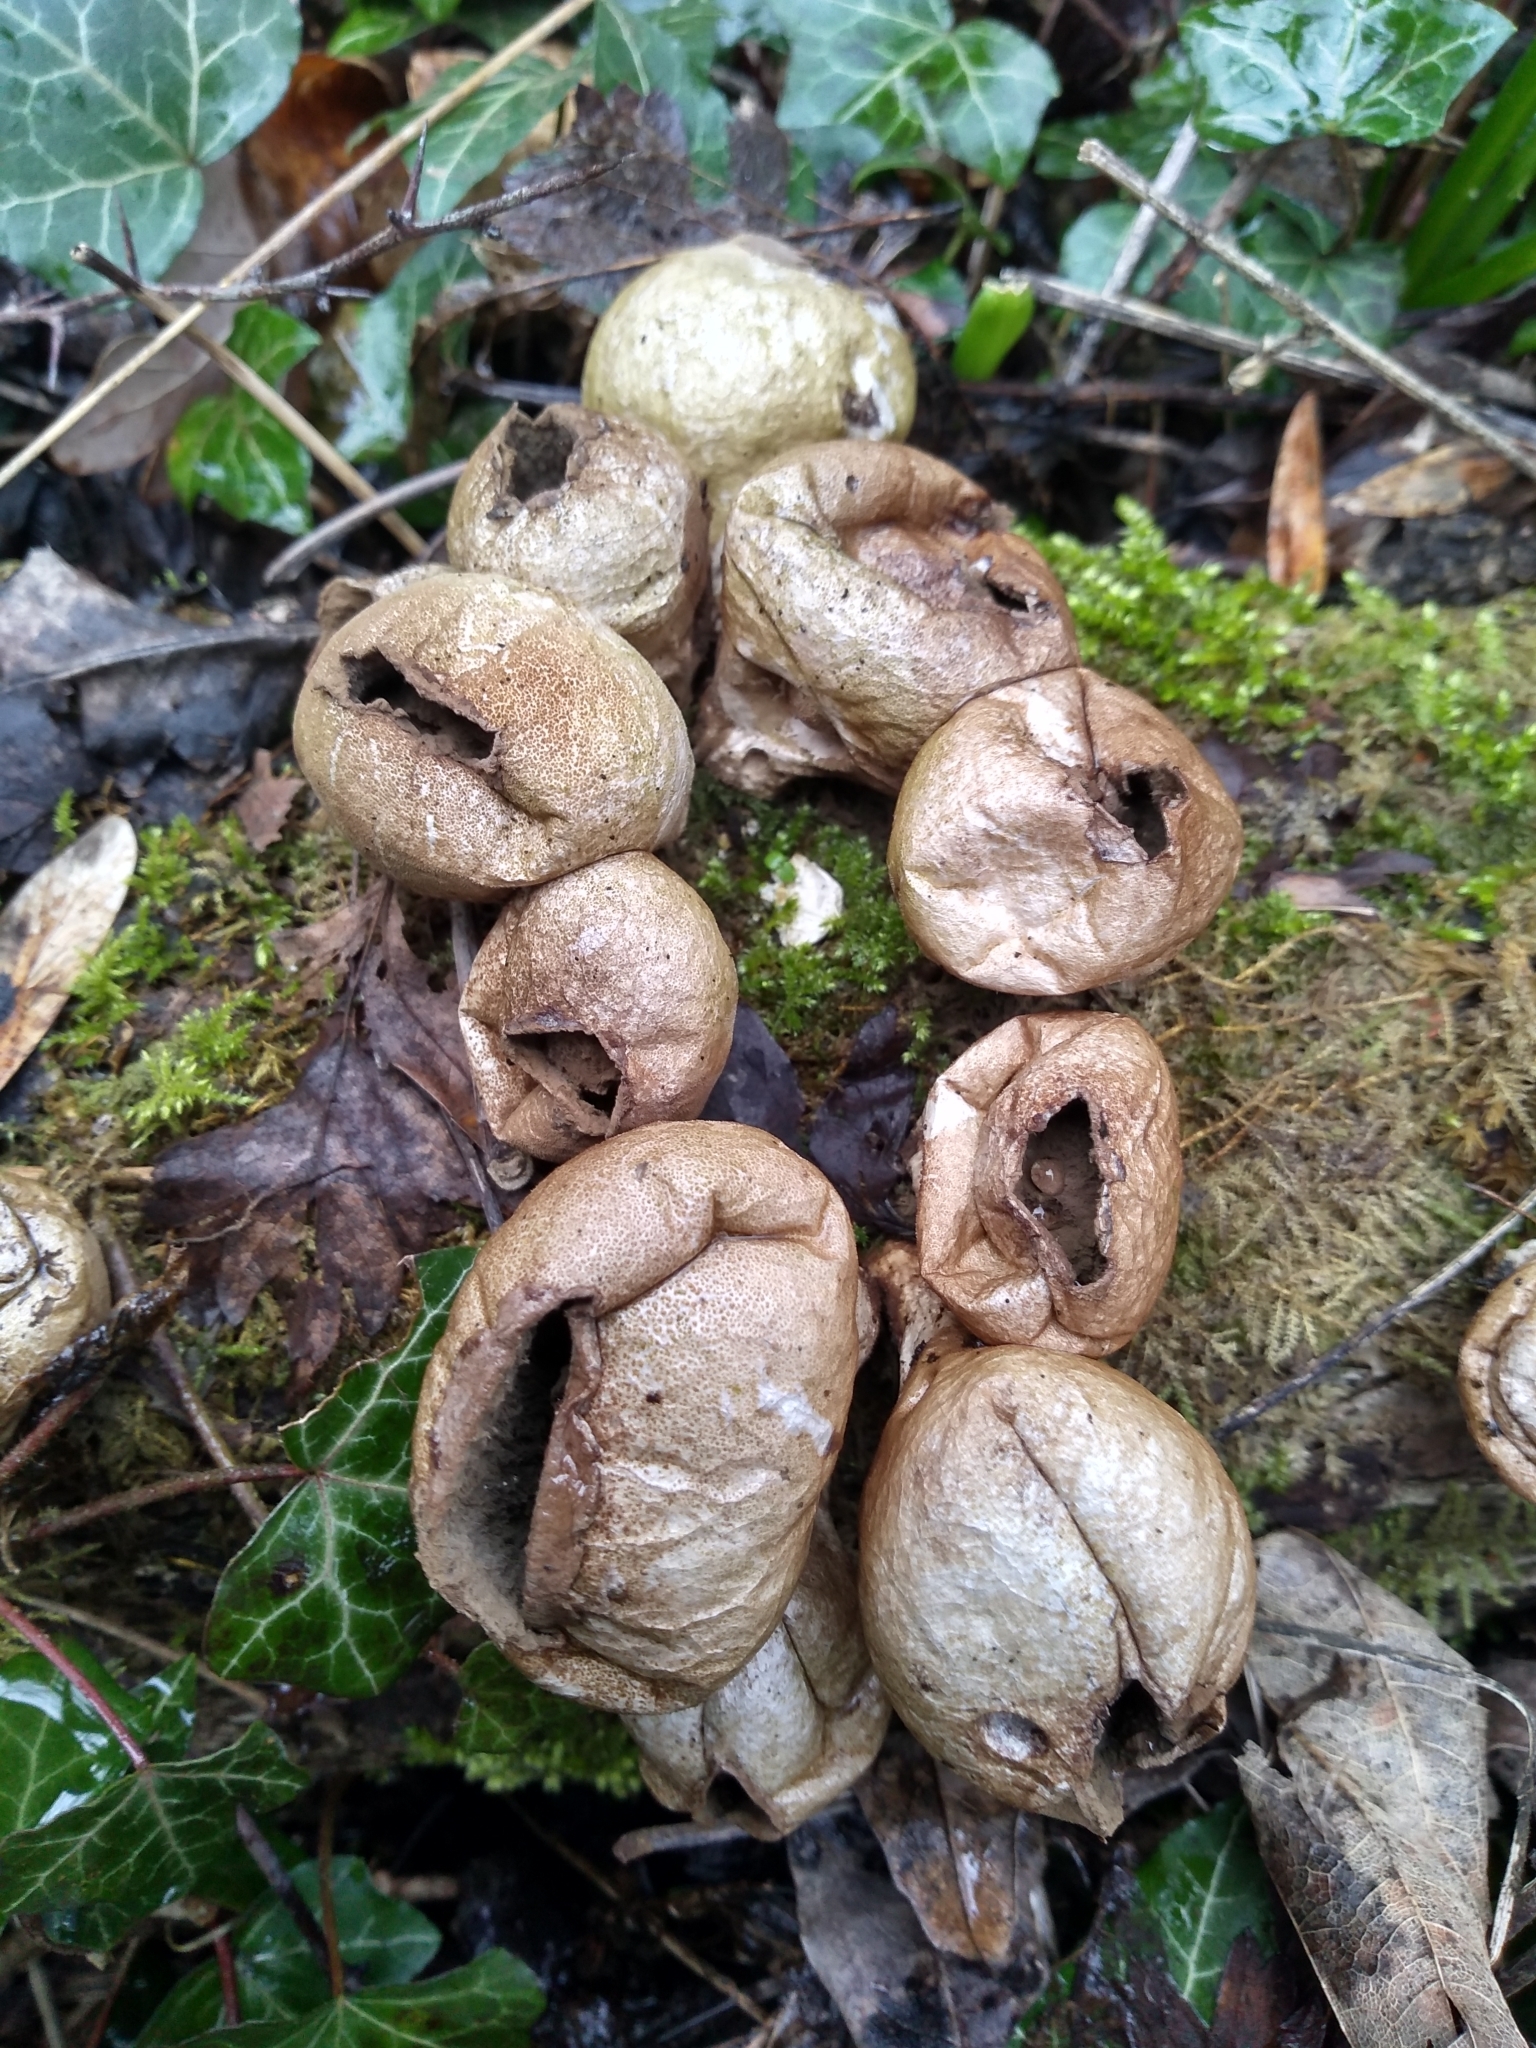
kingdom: Fungi
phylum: Basidiomycota
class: Agaricomycetes
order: Agaricales
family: Lycoperdaceae
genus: Apioperdon
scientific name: Apioperdon pyriforme
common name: Pear-shaped puffball
